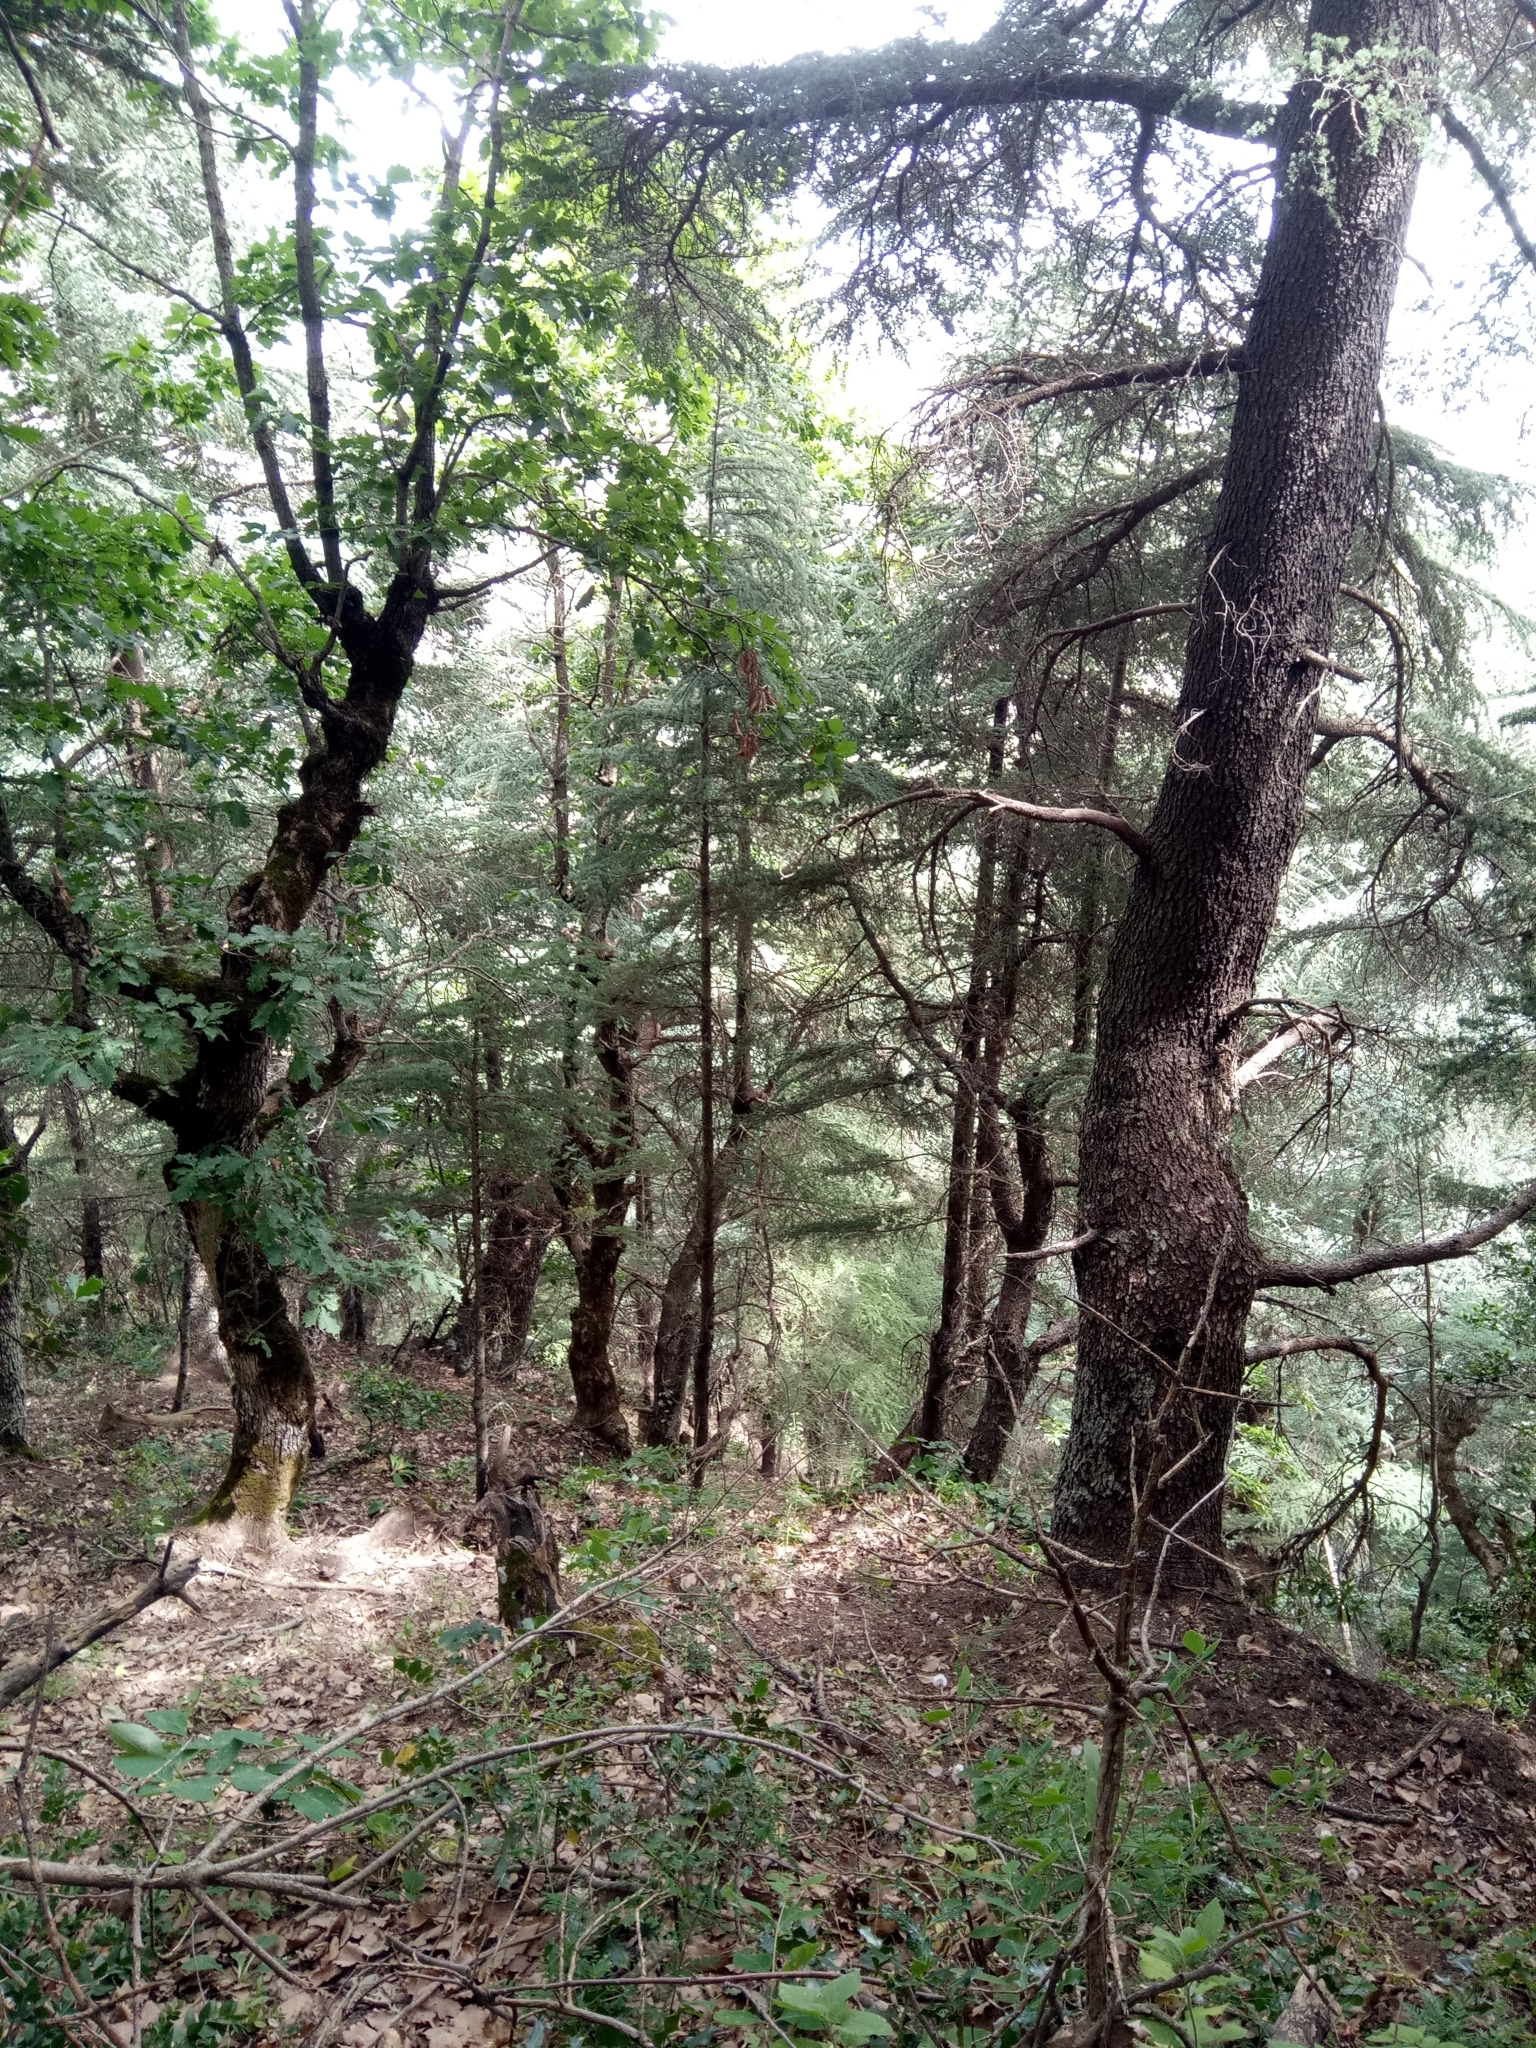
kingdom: Plantae
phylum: Tracheophyta
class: Pinopsida
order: Pinales
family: Pinaceae
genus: Cedrus
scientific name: Cedrus atlantica
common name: Atlas cedar
